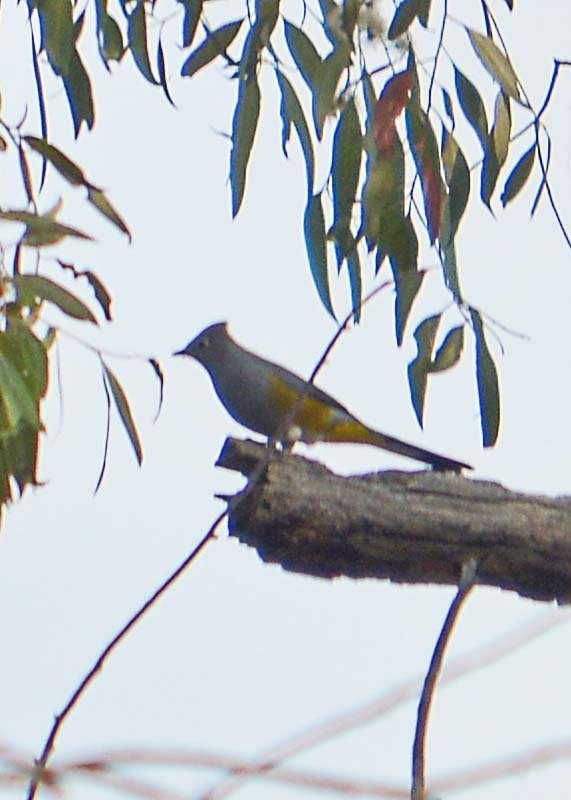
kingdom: Animalia
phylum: Chordata
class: Aves
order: Passeriformes
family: Ptilogonatidae
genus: Ptilogonys
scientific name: Ptilogonys cinereus
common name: Gray silky-flycatcher
